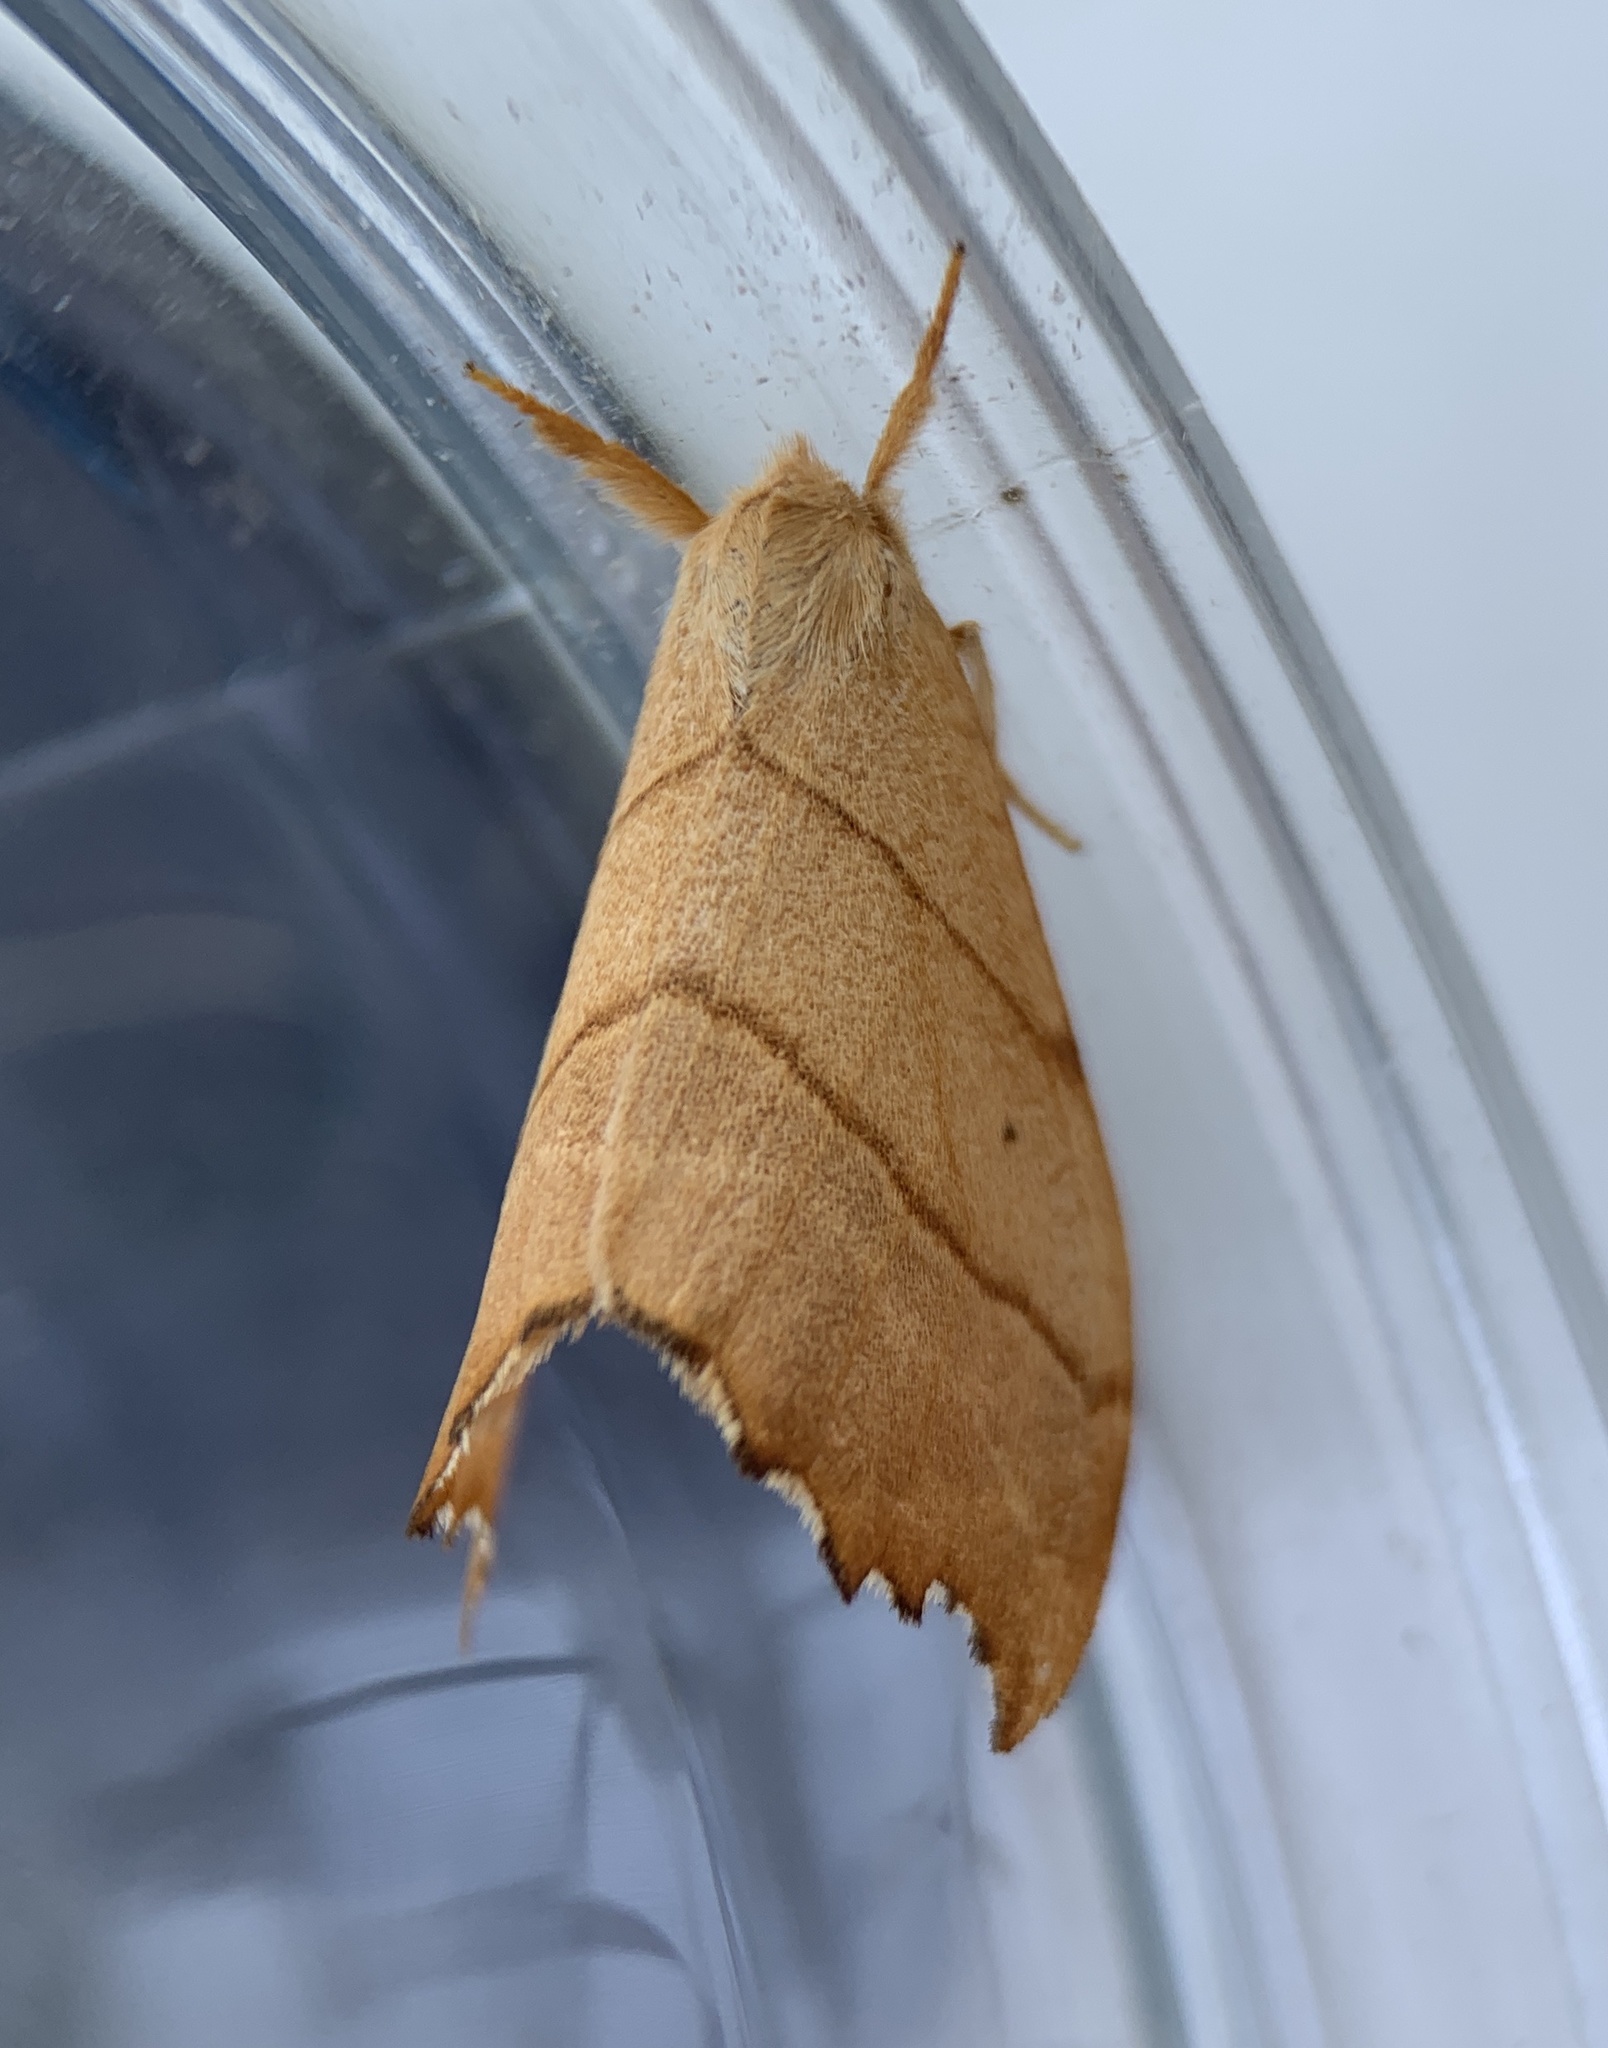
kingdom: Animalia
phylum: Arthropoda
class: Insecta
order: Lepidoptera
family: Drepanidae
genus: Falcaria
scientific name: Falcaria bilineata
